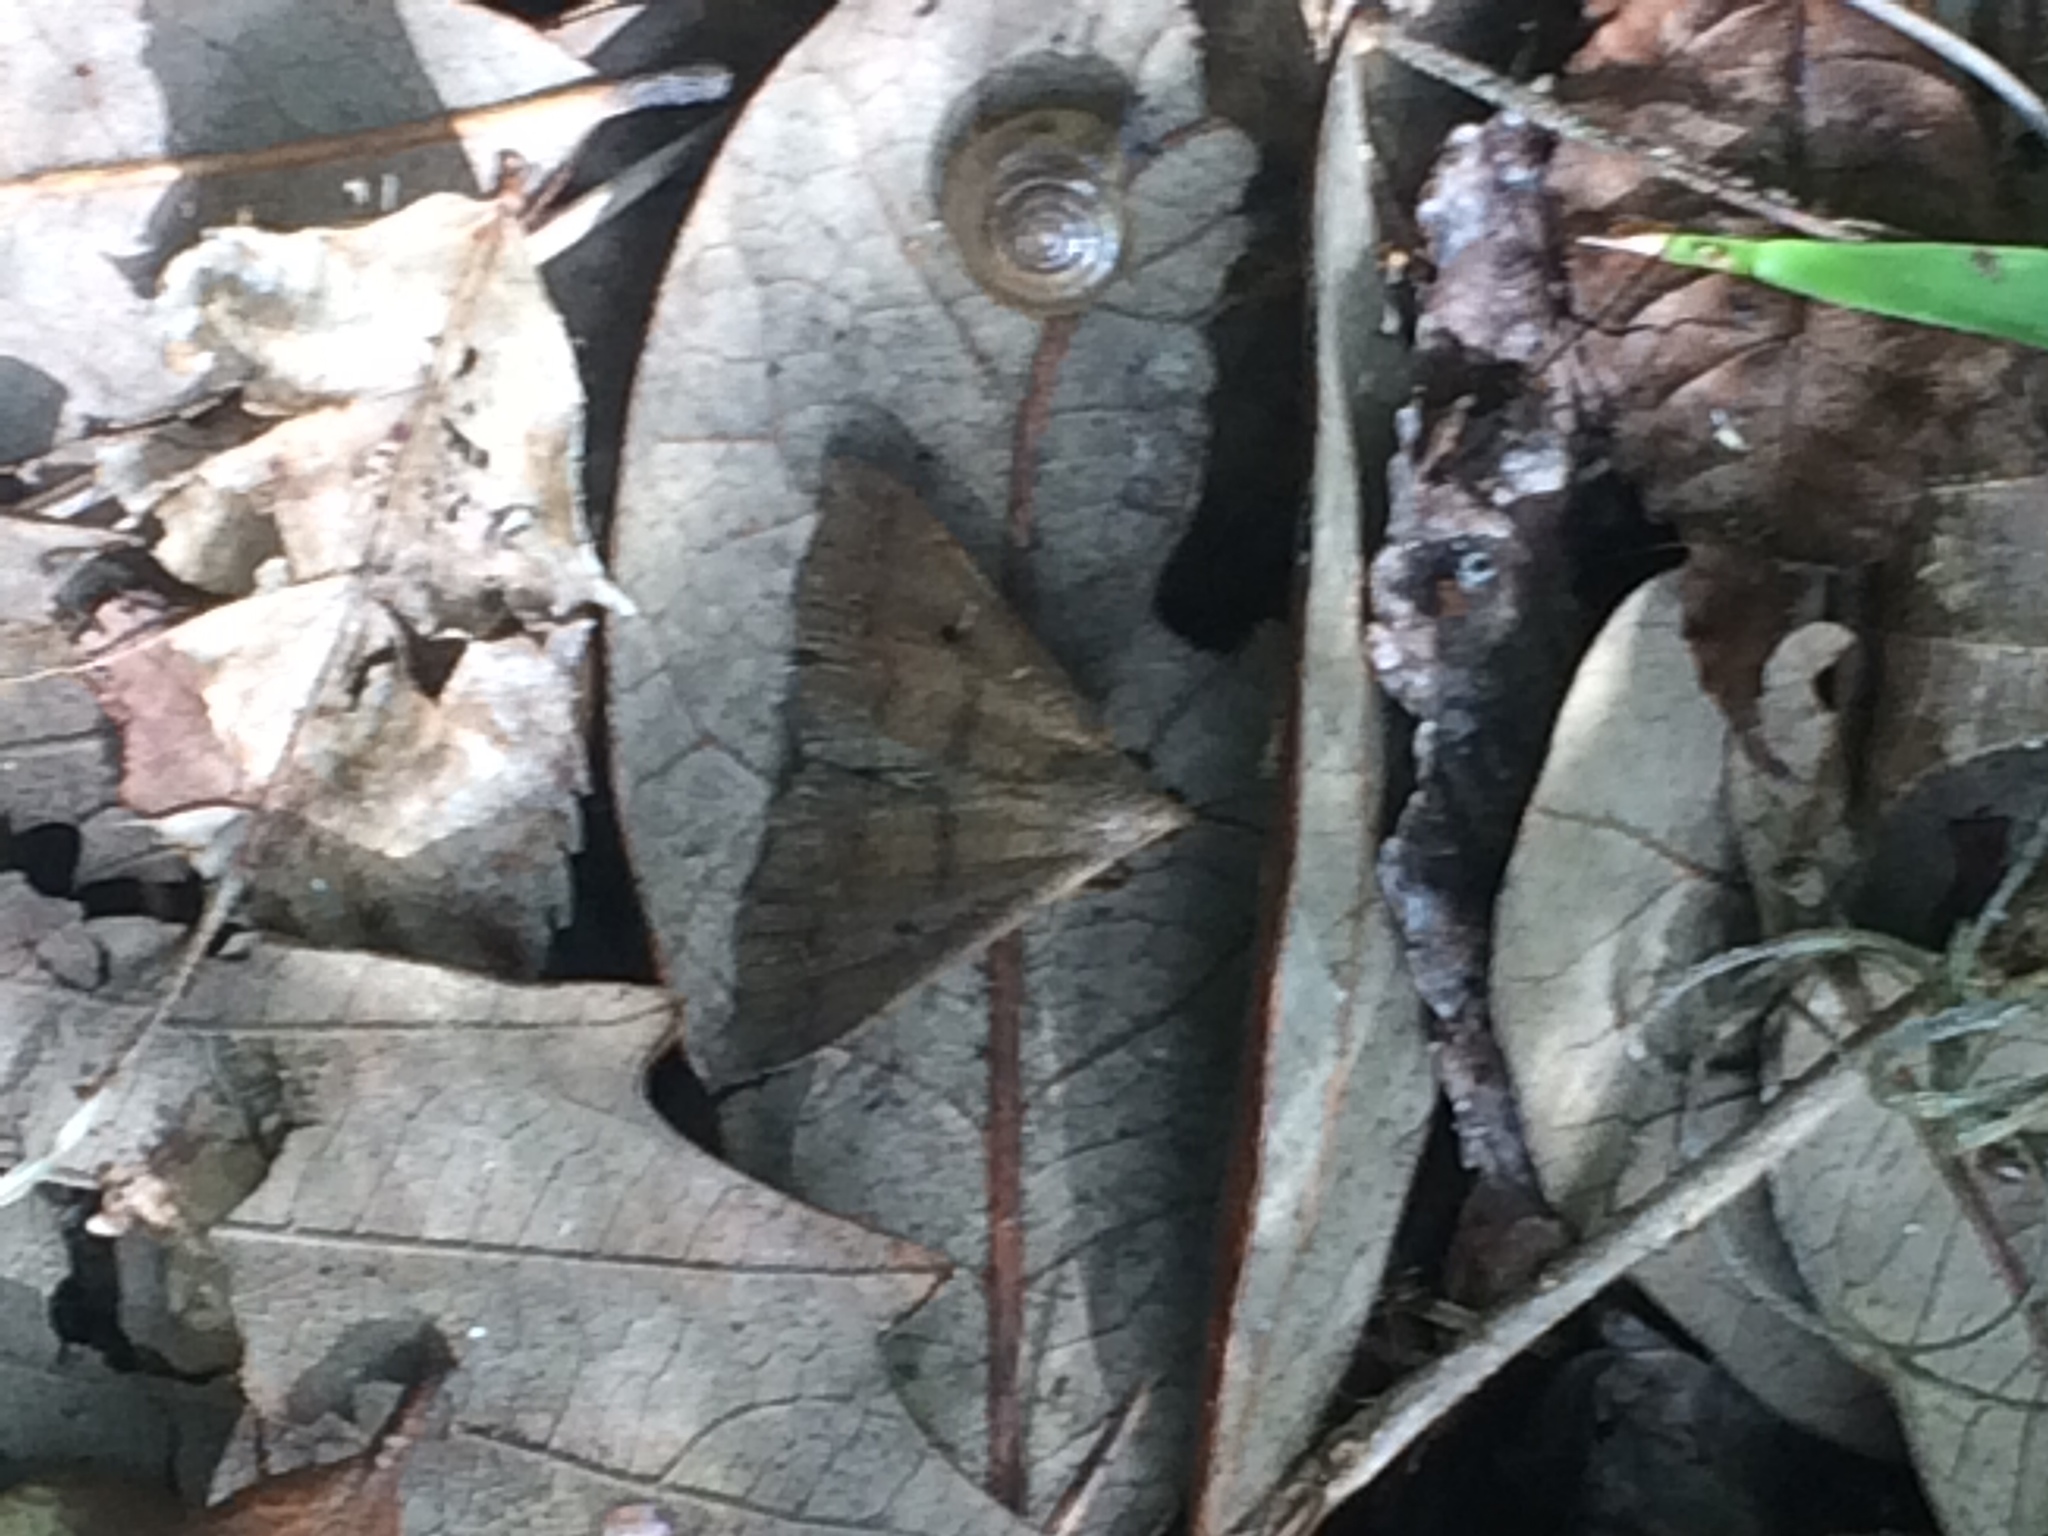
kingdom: Animalia
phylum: Arthropoda
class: Insecta
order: Lepidoptera
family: Erebidae
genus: Bleptina
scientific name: Bleptina caradrinalis
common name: Bent-winged owlet
